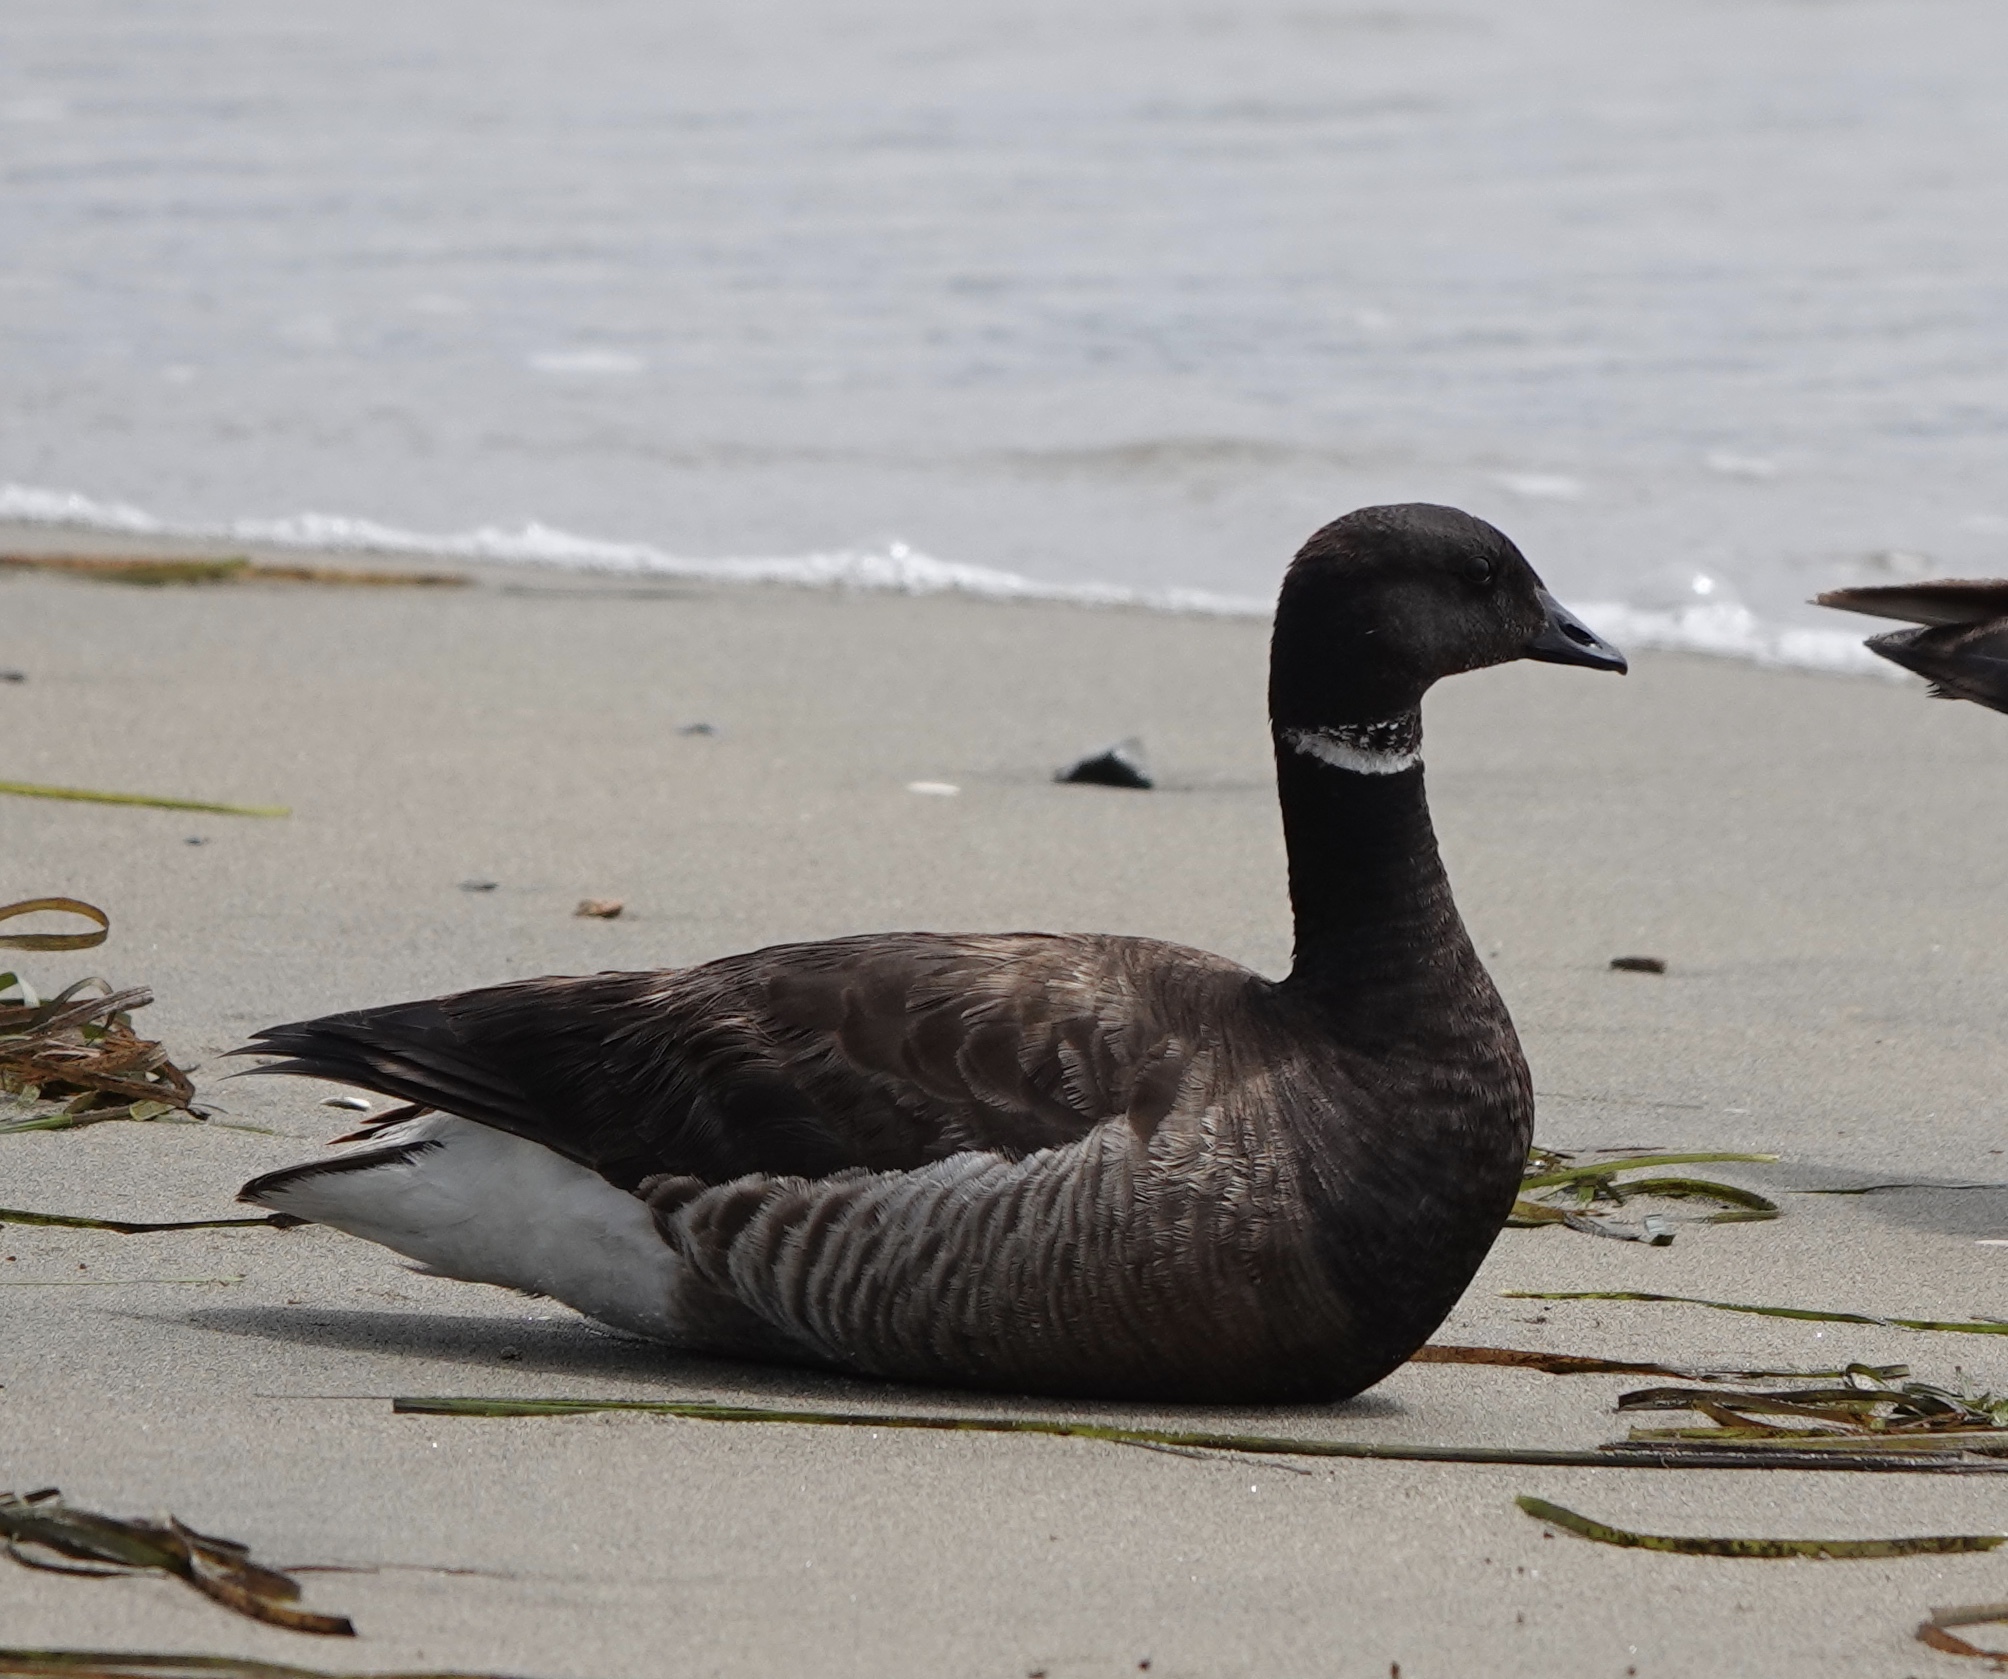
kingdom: Animalia
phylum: Chordata
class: Aves
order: Anseriformes
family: Anatidae
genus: Branta
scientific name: Branta bernicla
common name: Brant goose
